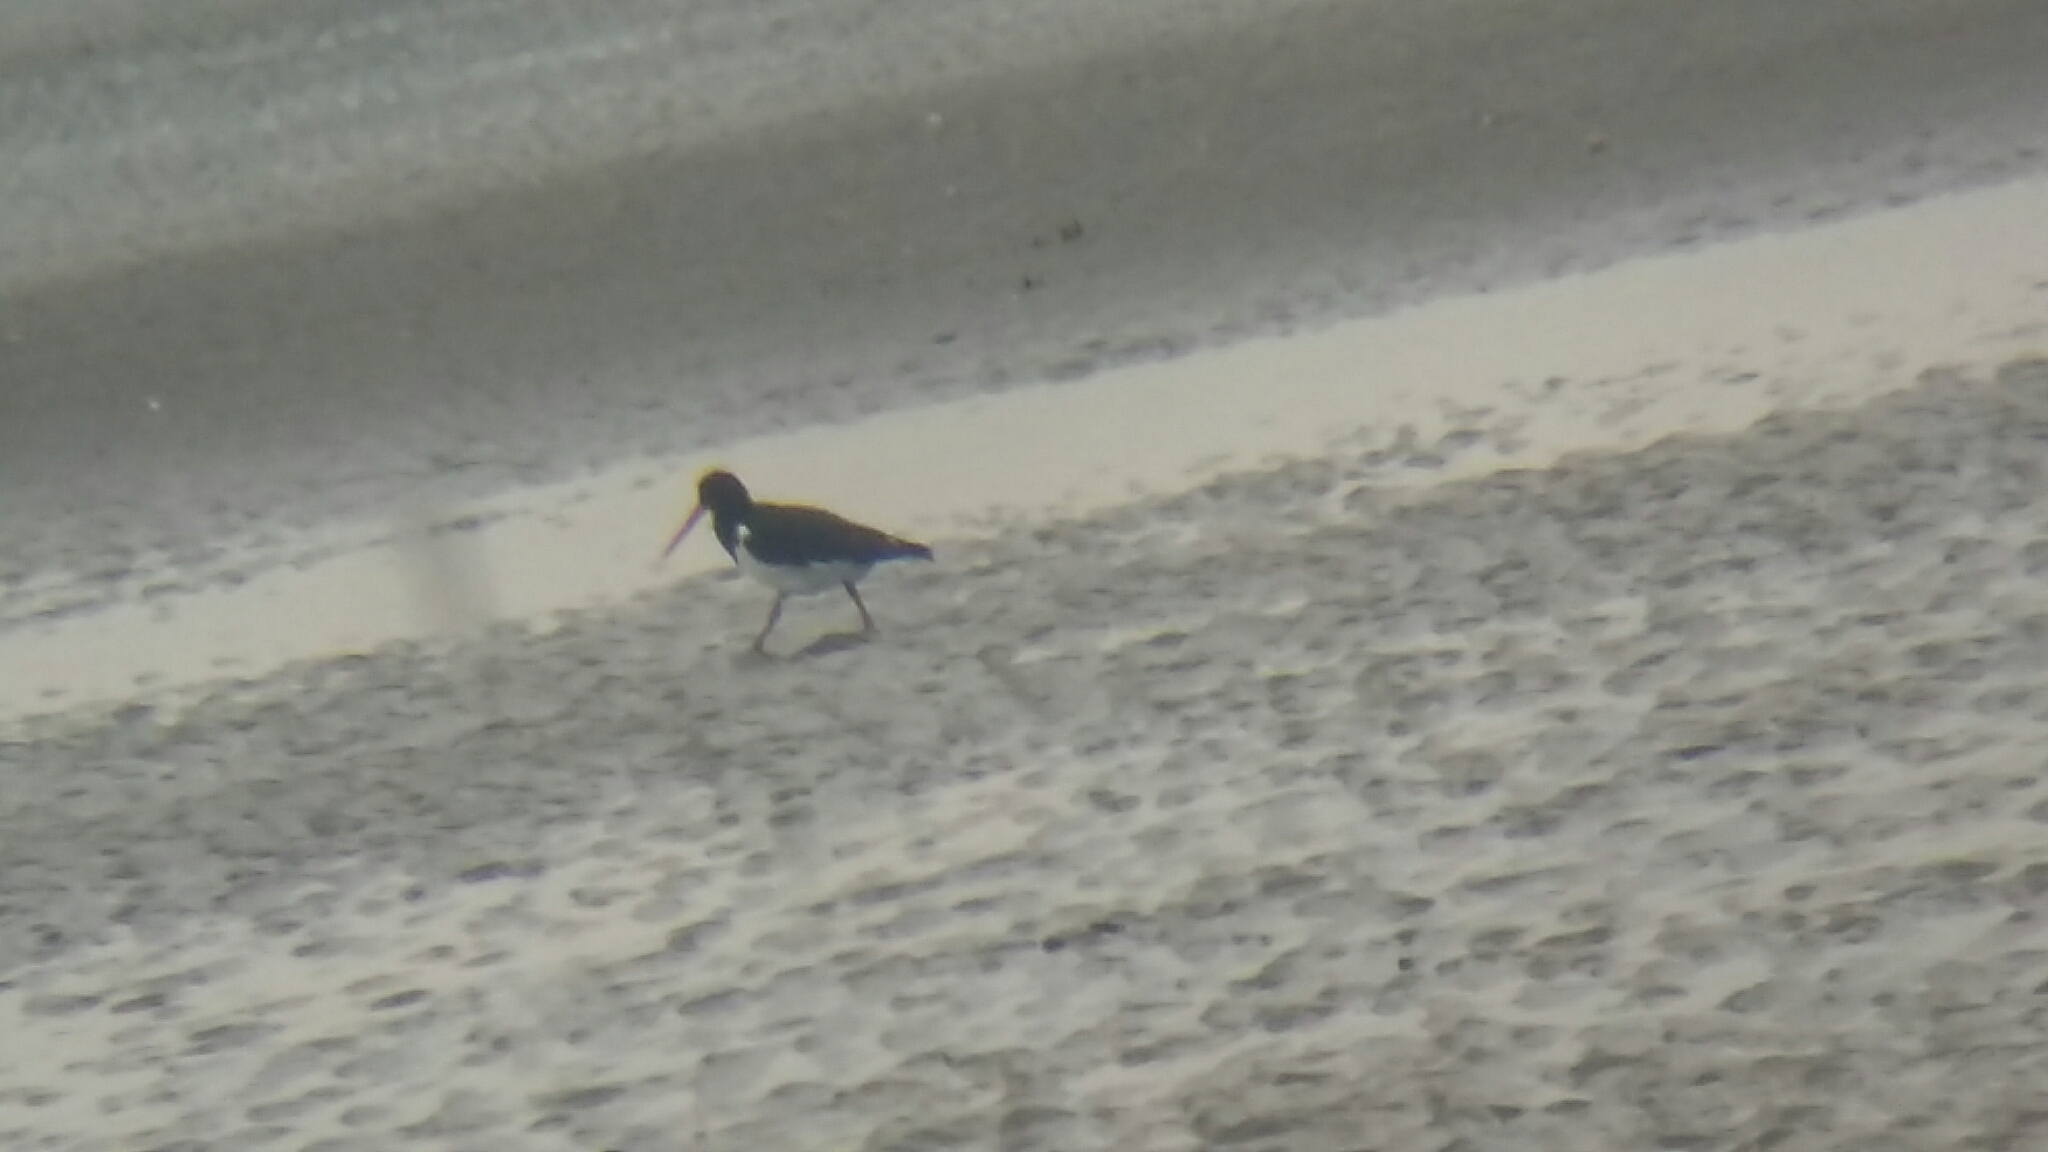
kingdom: Animalia
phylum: Chordata
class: Aves
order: Charadriiformes
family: Haematopodidae
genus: Haematopus
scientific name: Haematopus finschi
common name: South island oystercatcher
